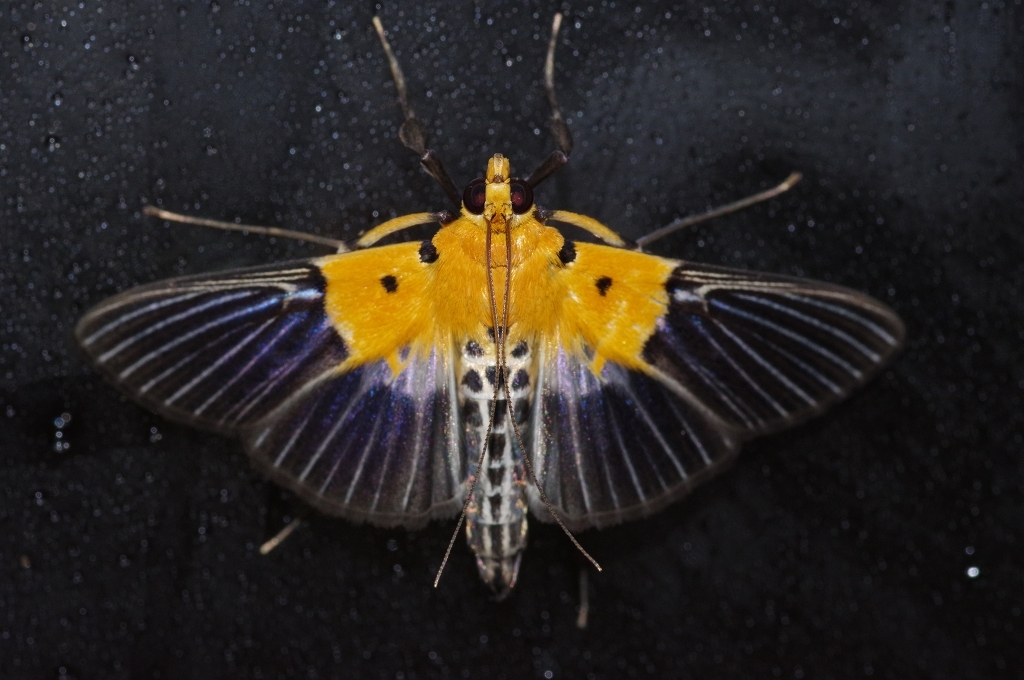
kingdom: Animalia
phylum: Arthropoda
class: Insecta
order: Lepidoptera
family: Crambidae
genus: Nevrina
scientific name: Nevrina procopia
